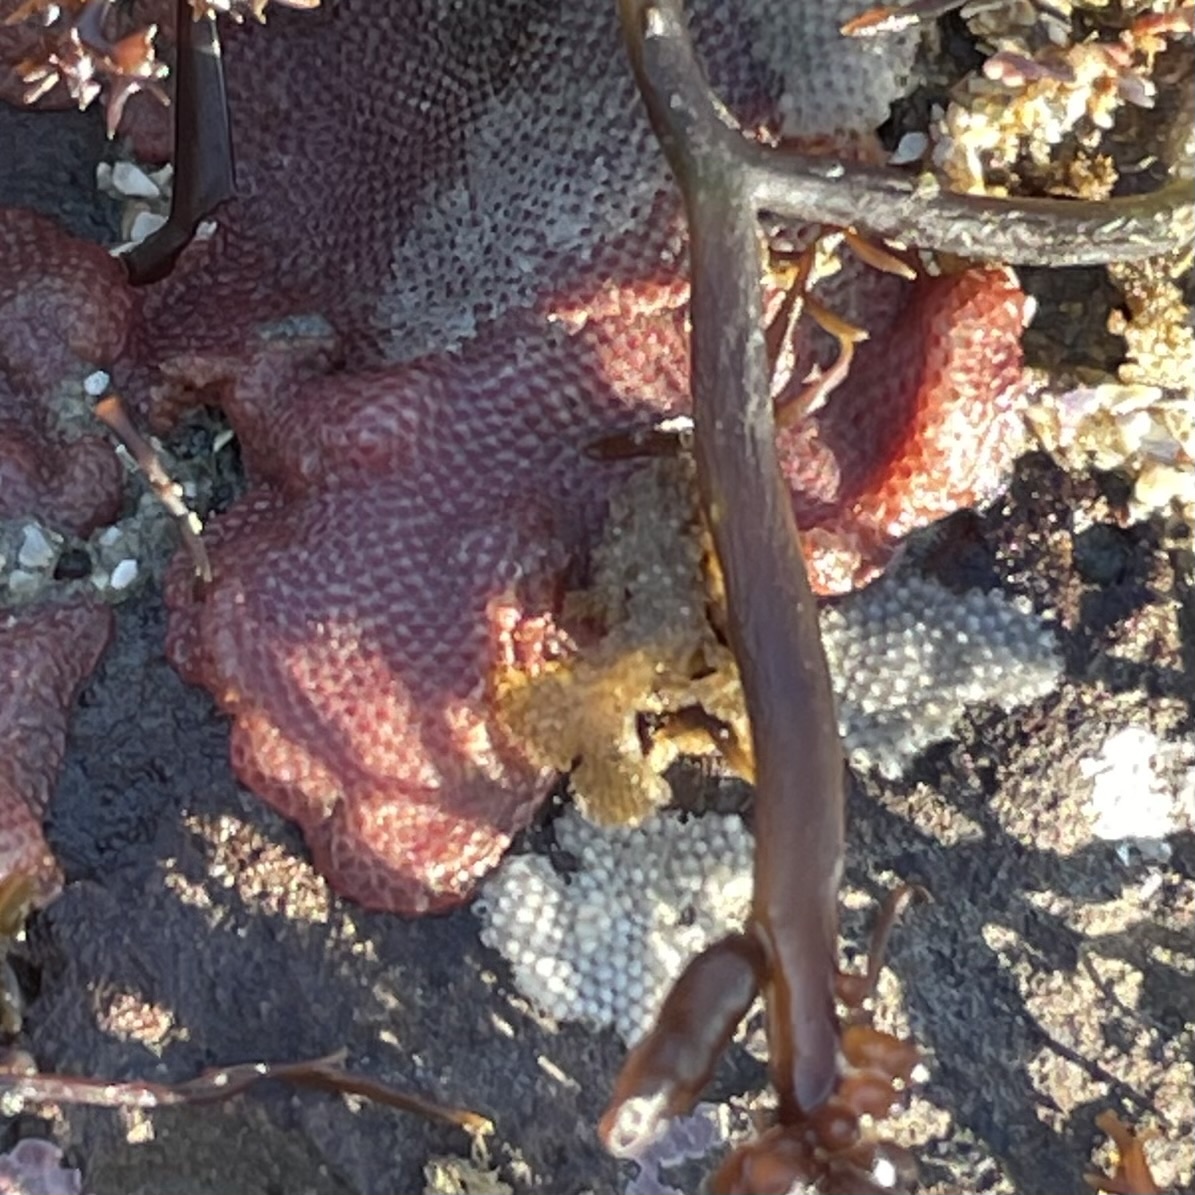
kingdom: Animalia
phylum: Bryozoa
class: Gymnolaemata
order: Cheilostomatida
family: Eurystomellidae
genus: Integripelta
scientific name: Integripelta bilabiata
